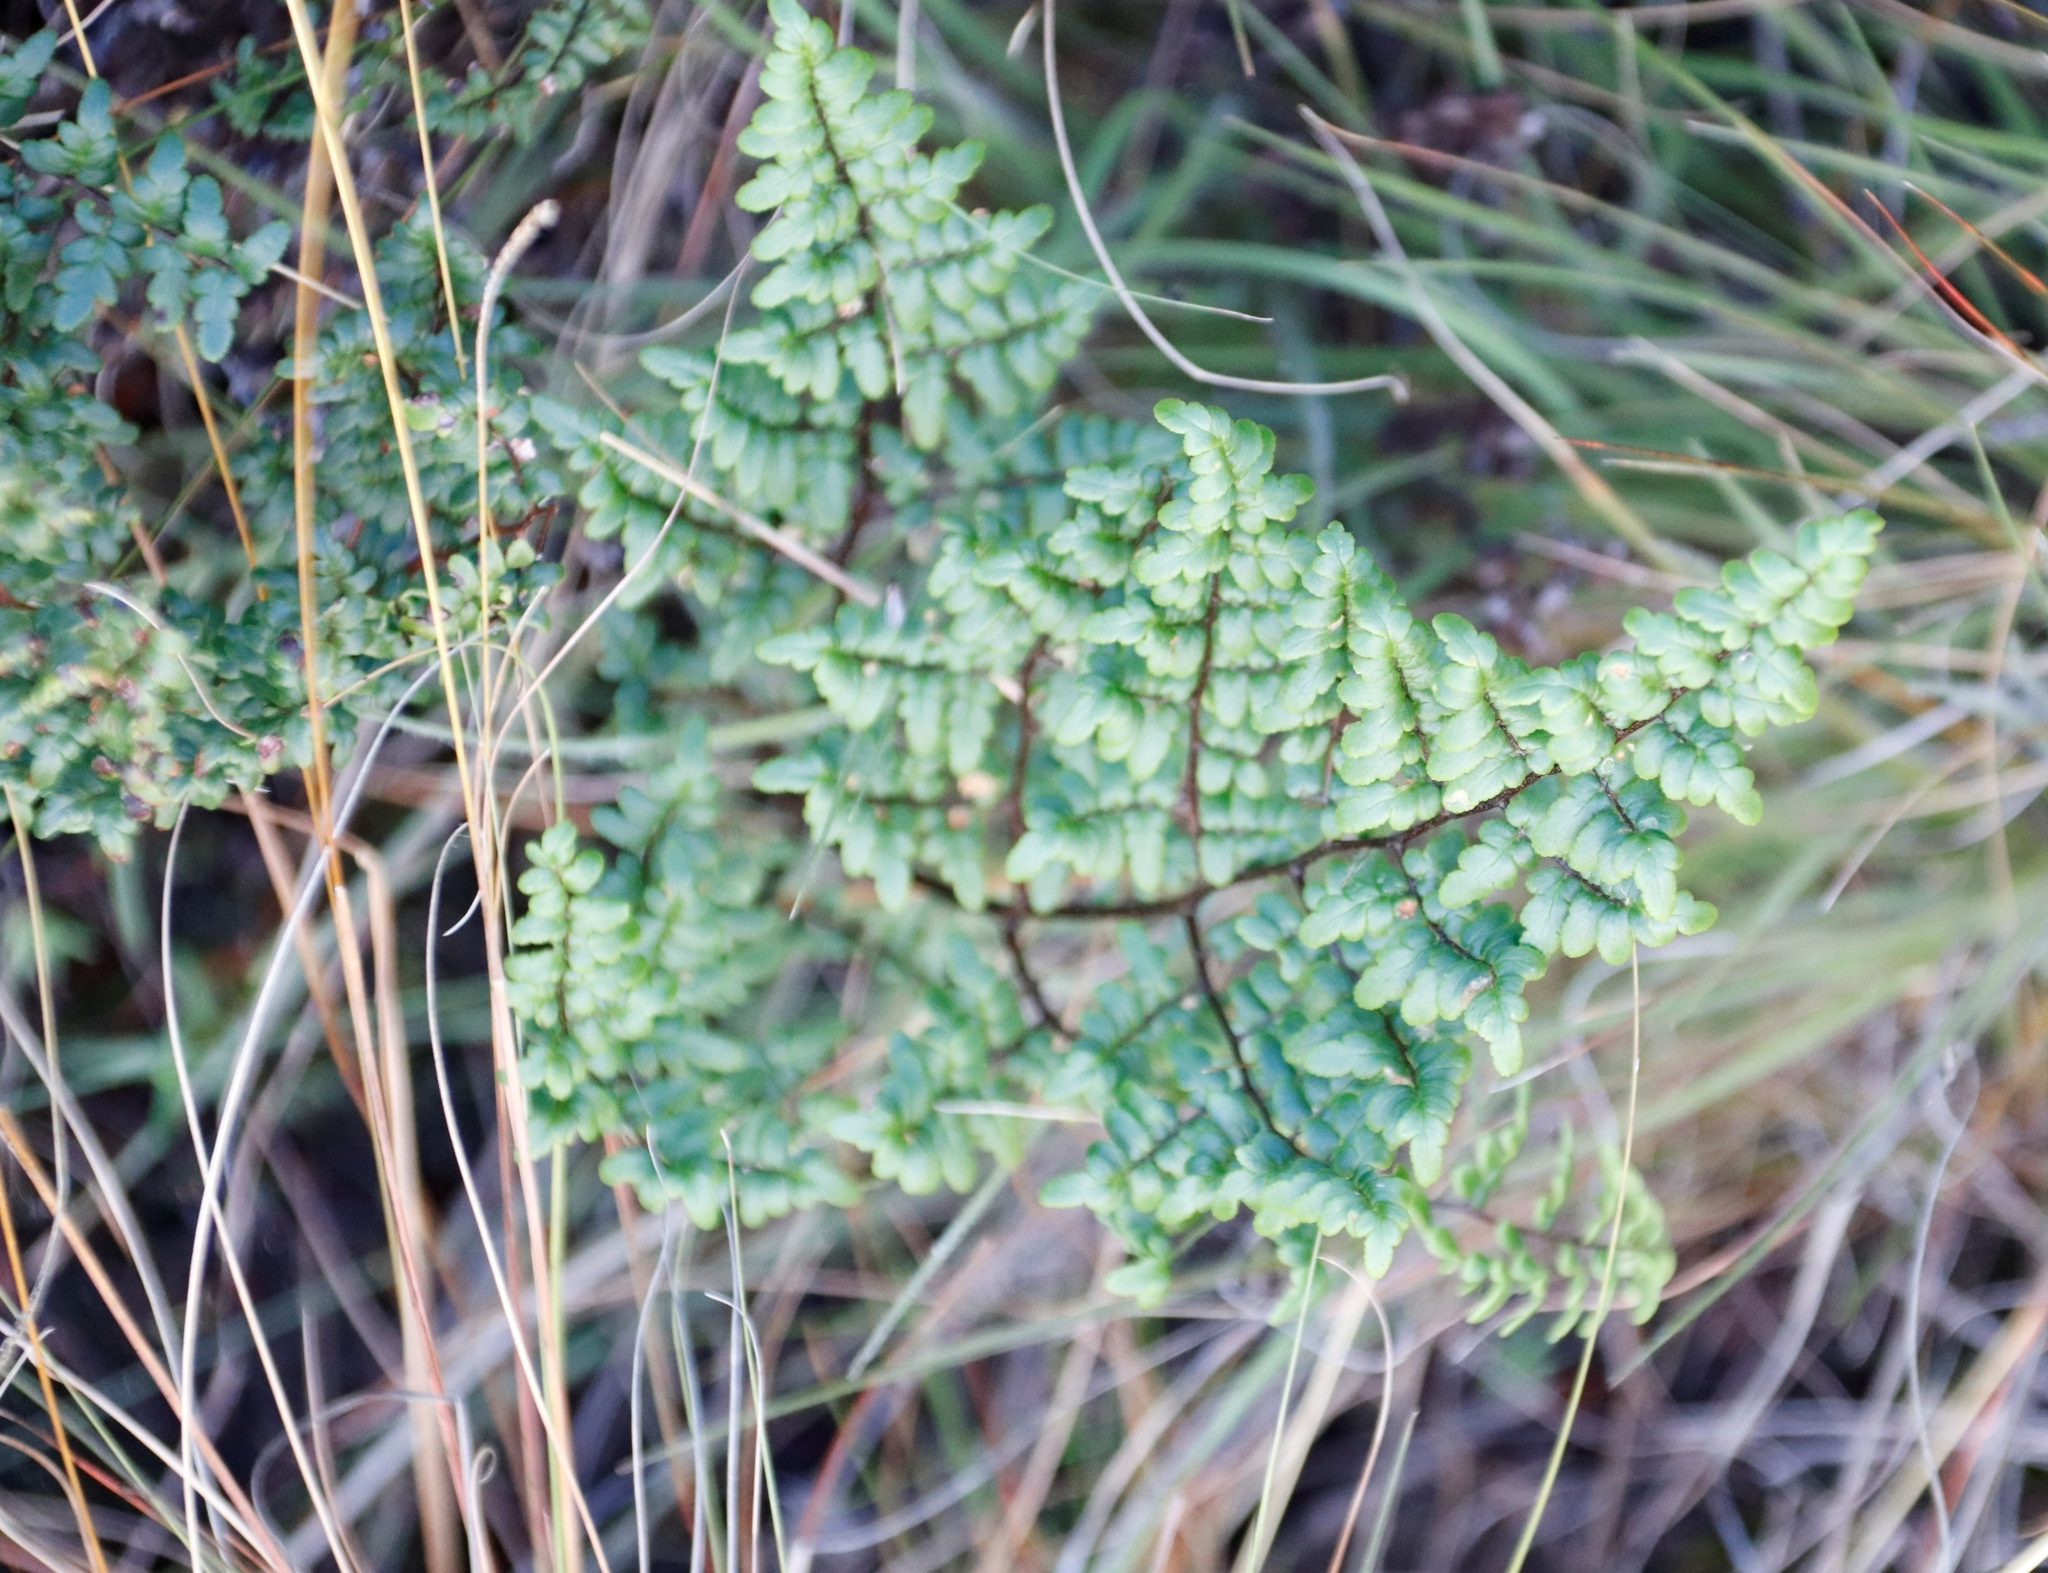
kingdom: Plantae
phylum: Tracheophyta
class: Polypodiopsida
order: Polypodiales
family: Pteridaceae
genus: Cheilanthes
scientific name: Cheilanthes quadripinnata
